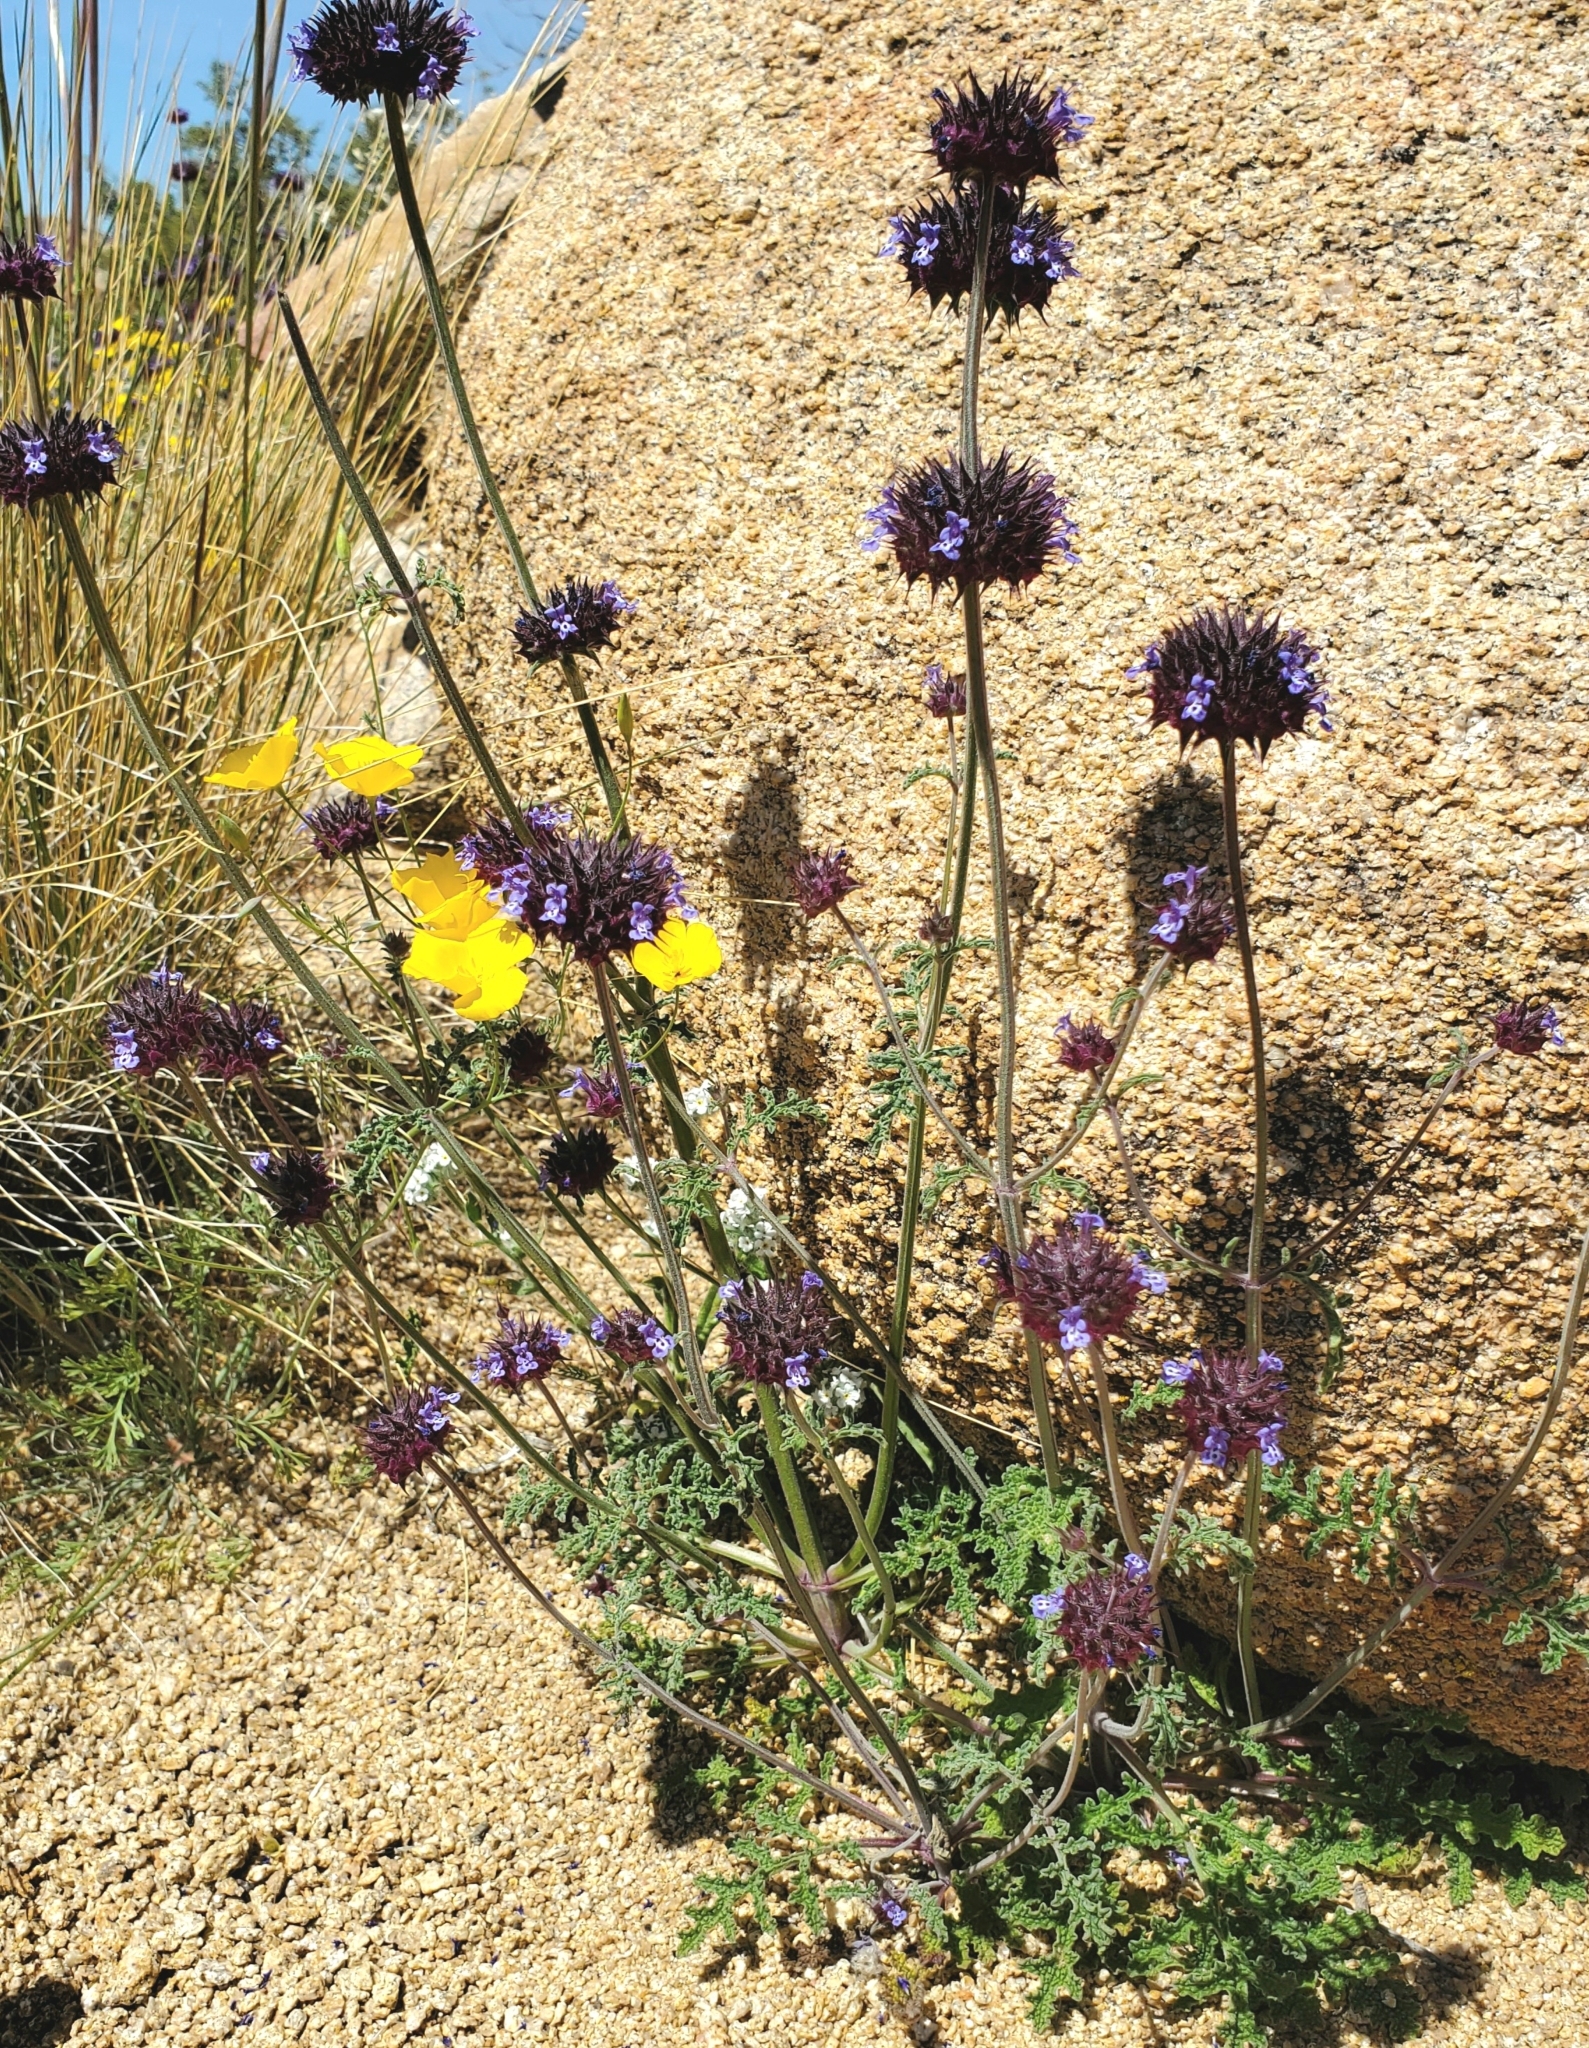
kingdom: Plantae
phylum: Tracheophyta
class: Magnoliopsida
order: Lamiales
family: Lamiaceae
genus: Salvia
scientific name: Salvia columbariae
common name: Chia
